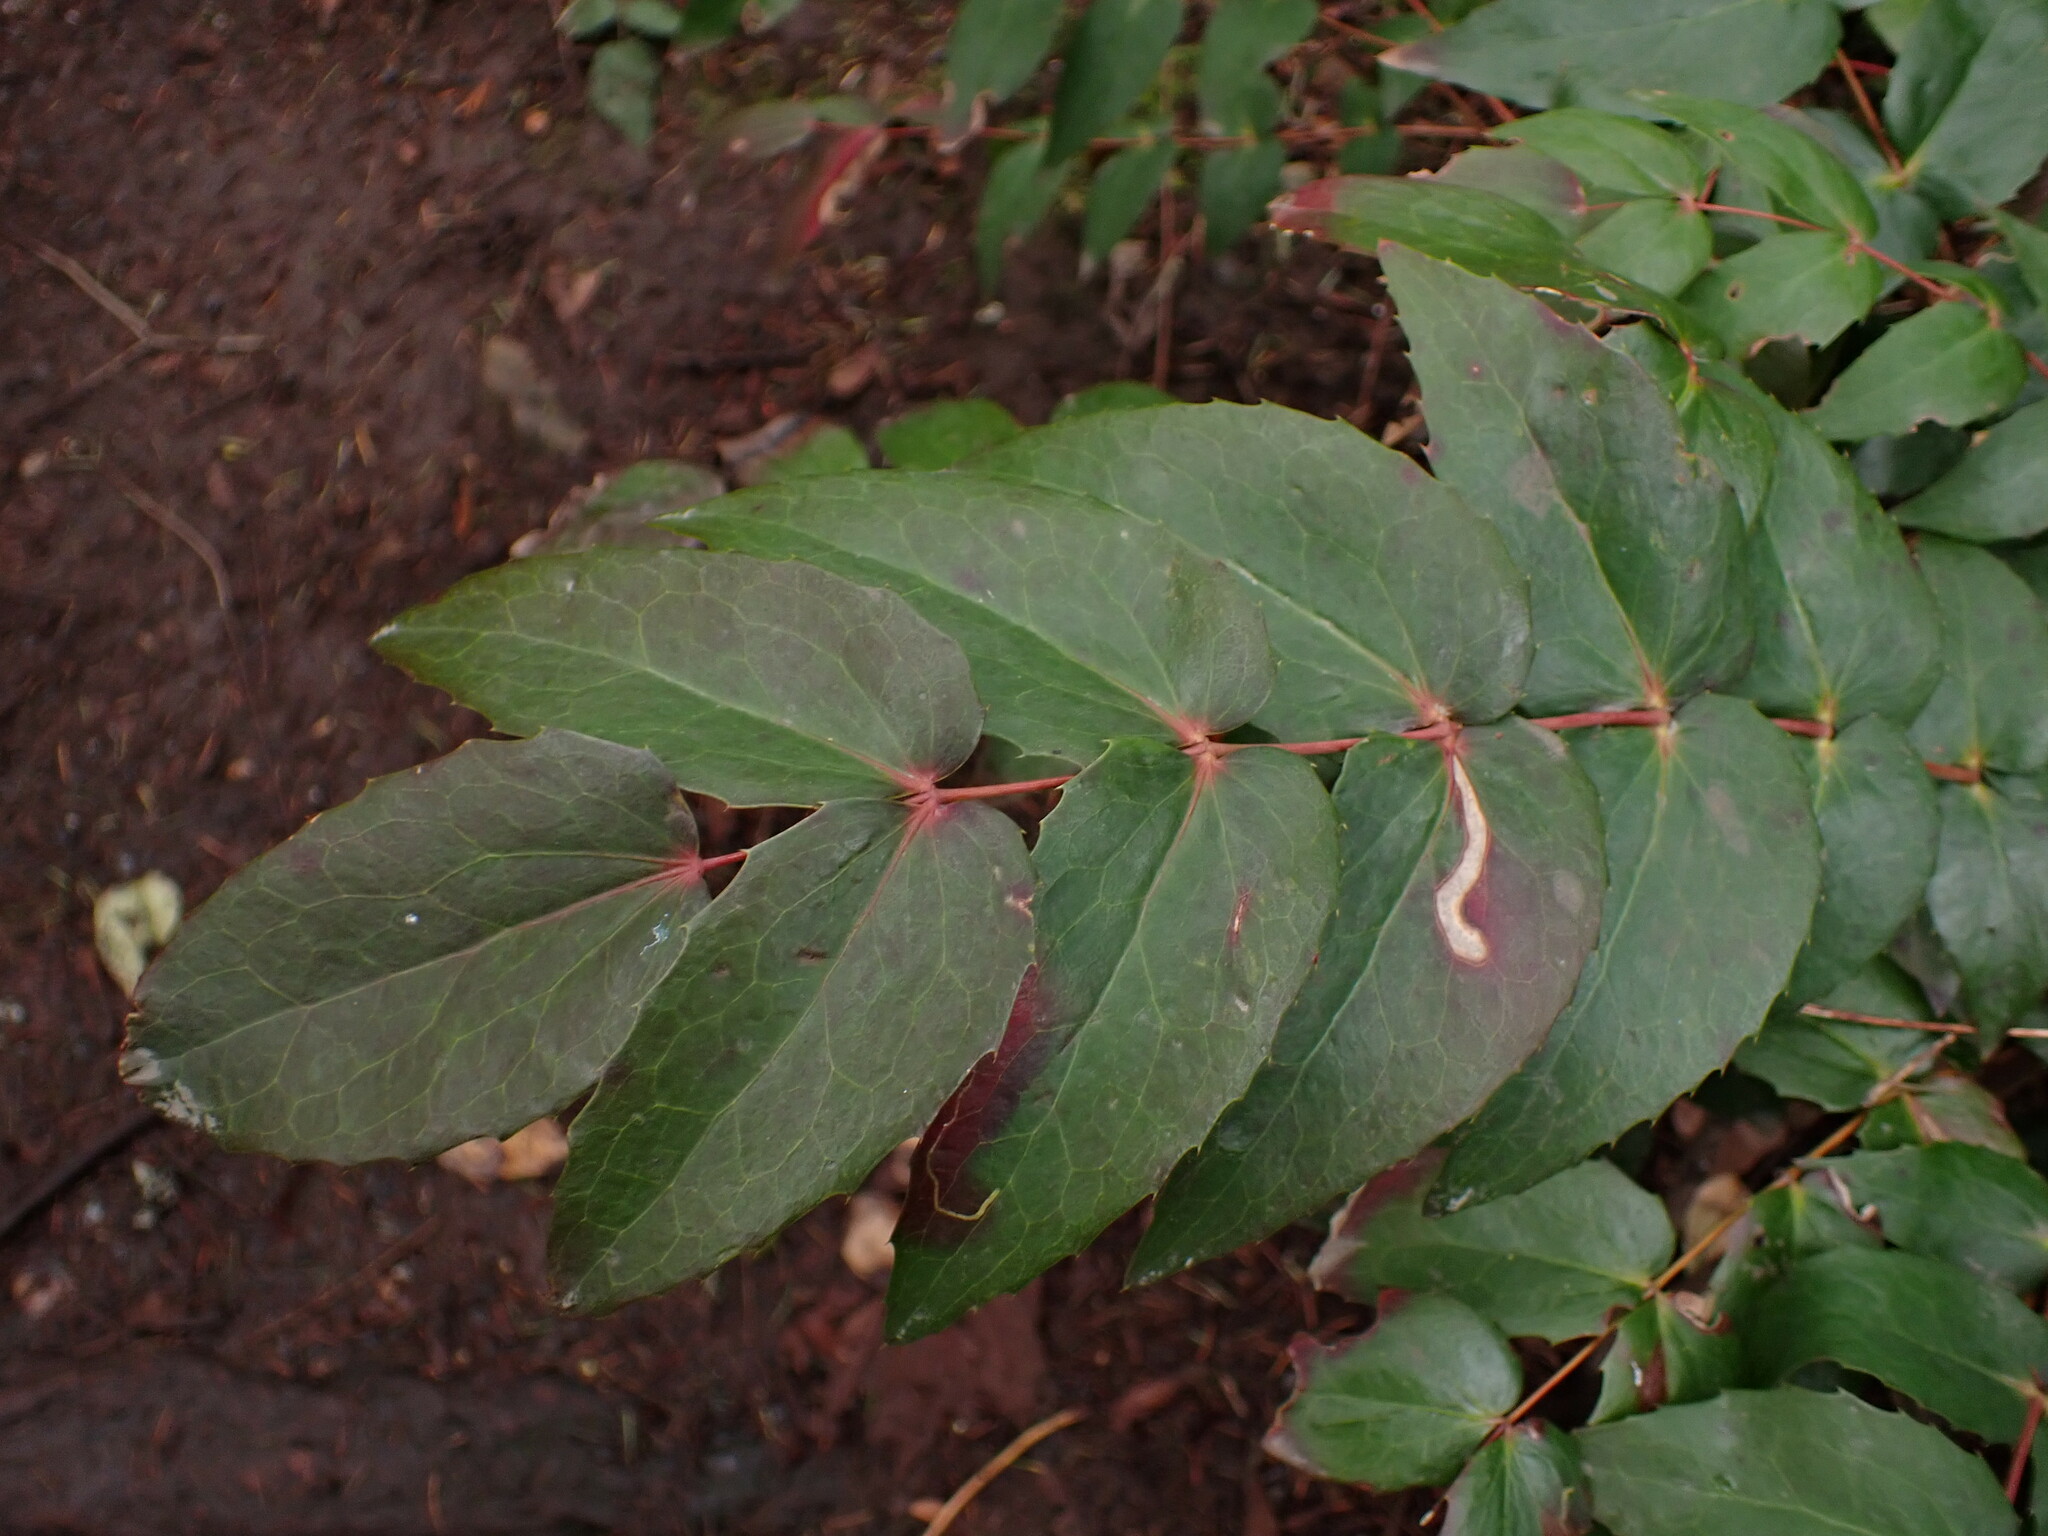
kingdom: Plantae
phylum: Tracheophyta
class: Magnoliopsida
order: Ranunculales
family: Berberidaceae
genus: Mahonia
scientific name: Mahonia nervosa
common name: Cascade oregon-grape
